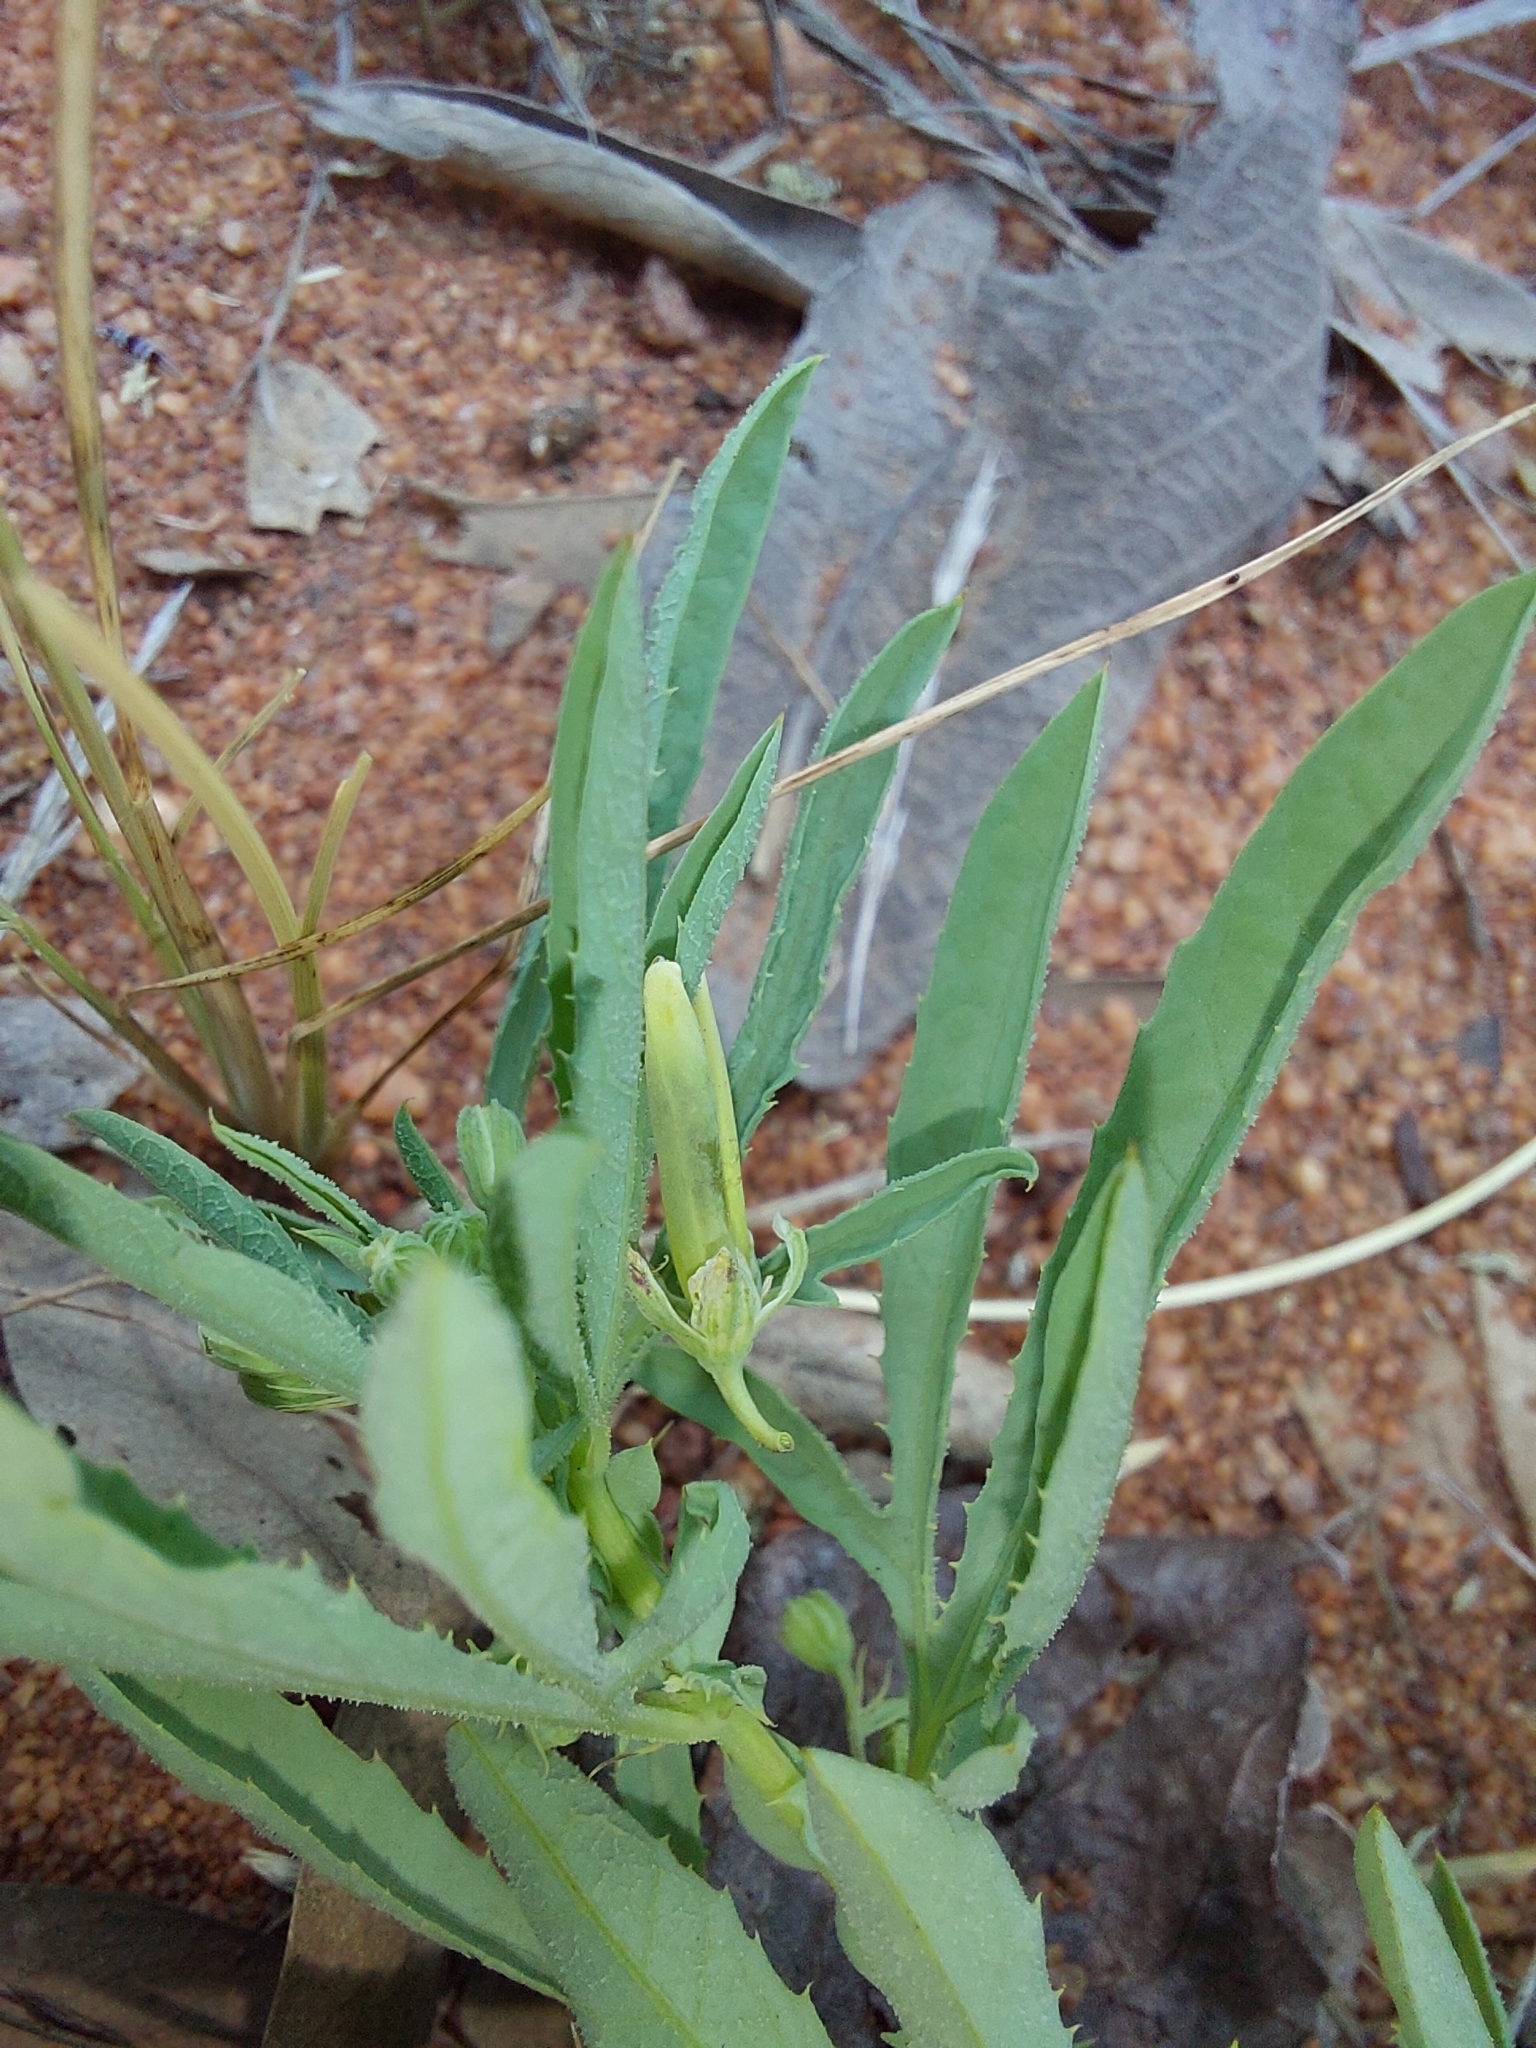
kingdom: Plantae
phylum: Tracheophyta
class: Magnoliopsida
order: Malpighiales
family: Passifloraceae
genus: Basananthe
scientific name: Basananthe pedata
